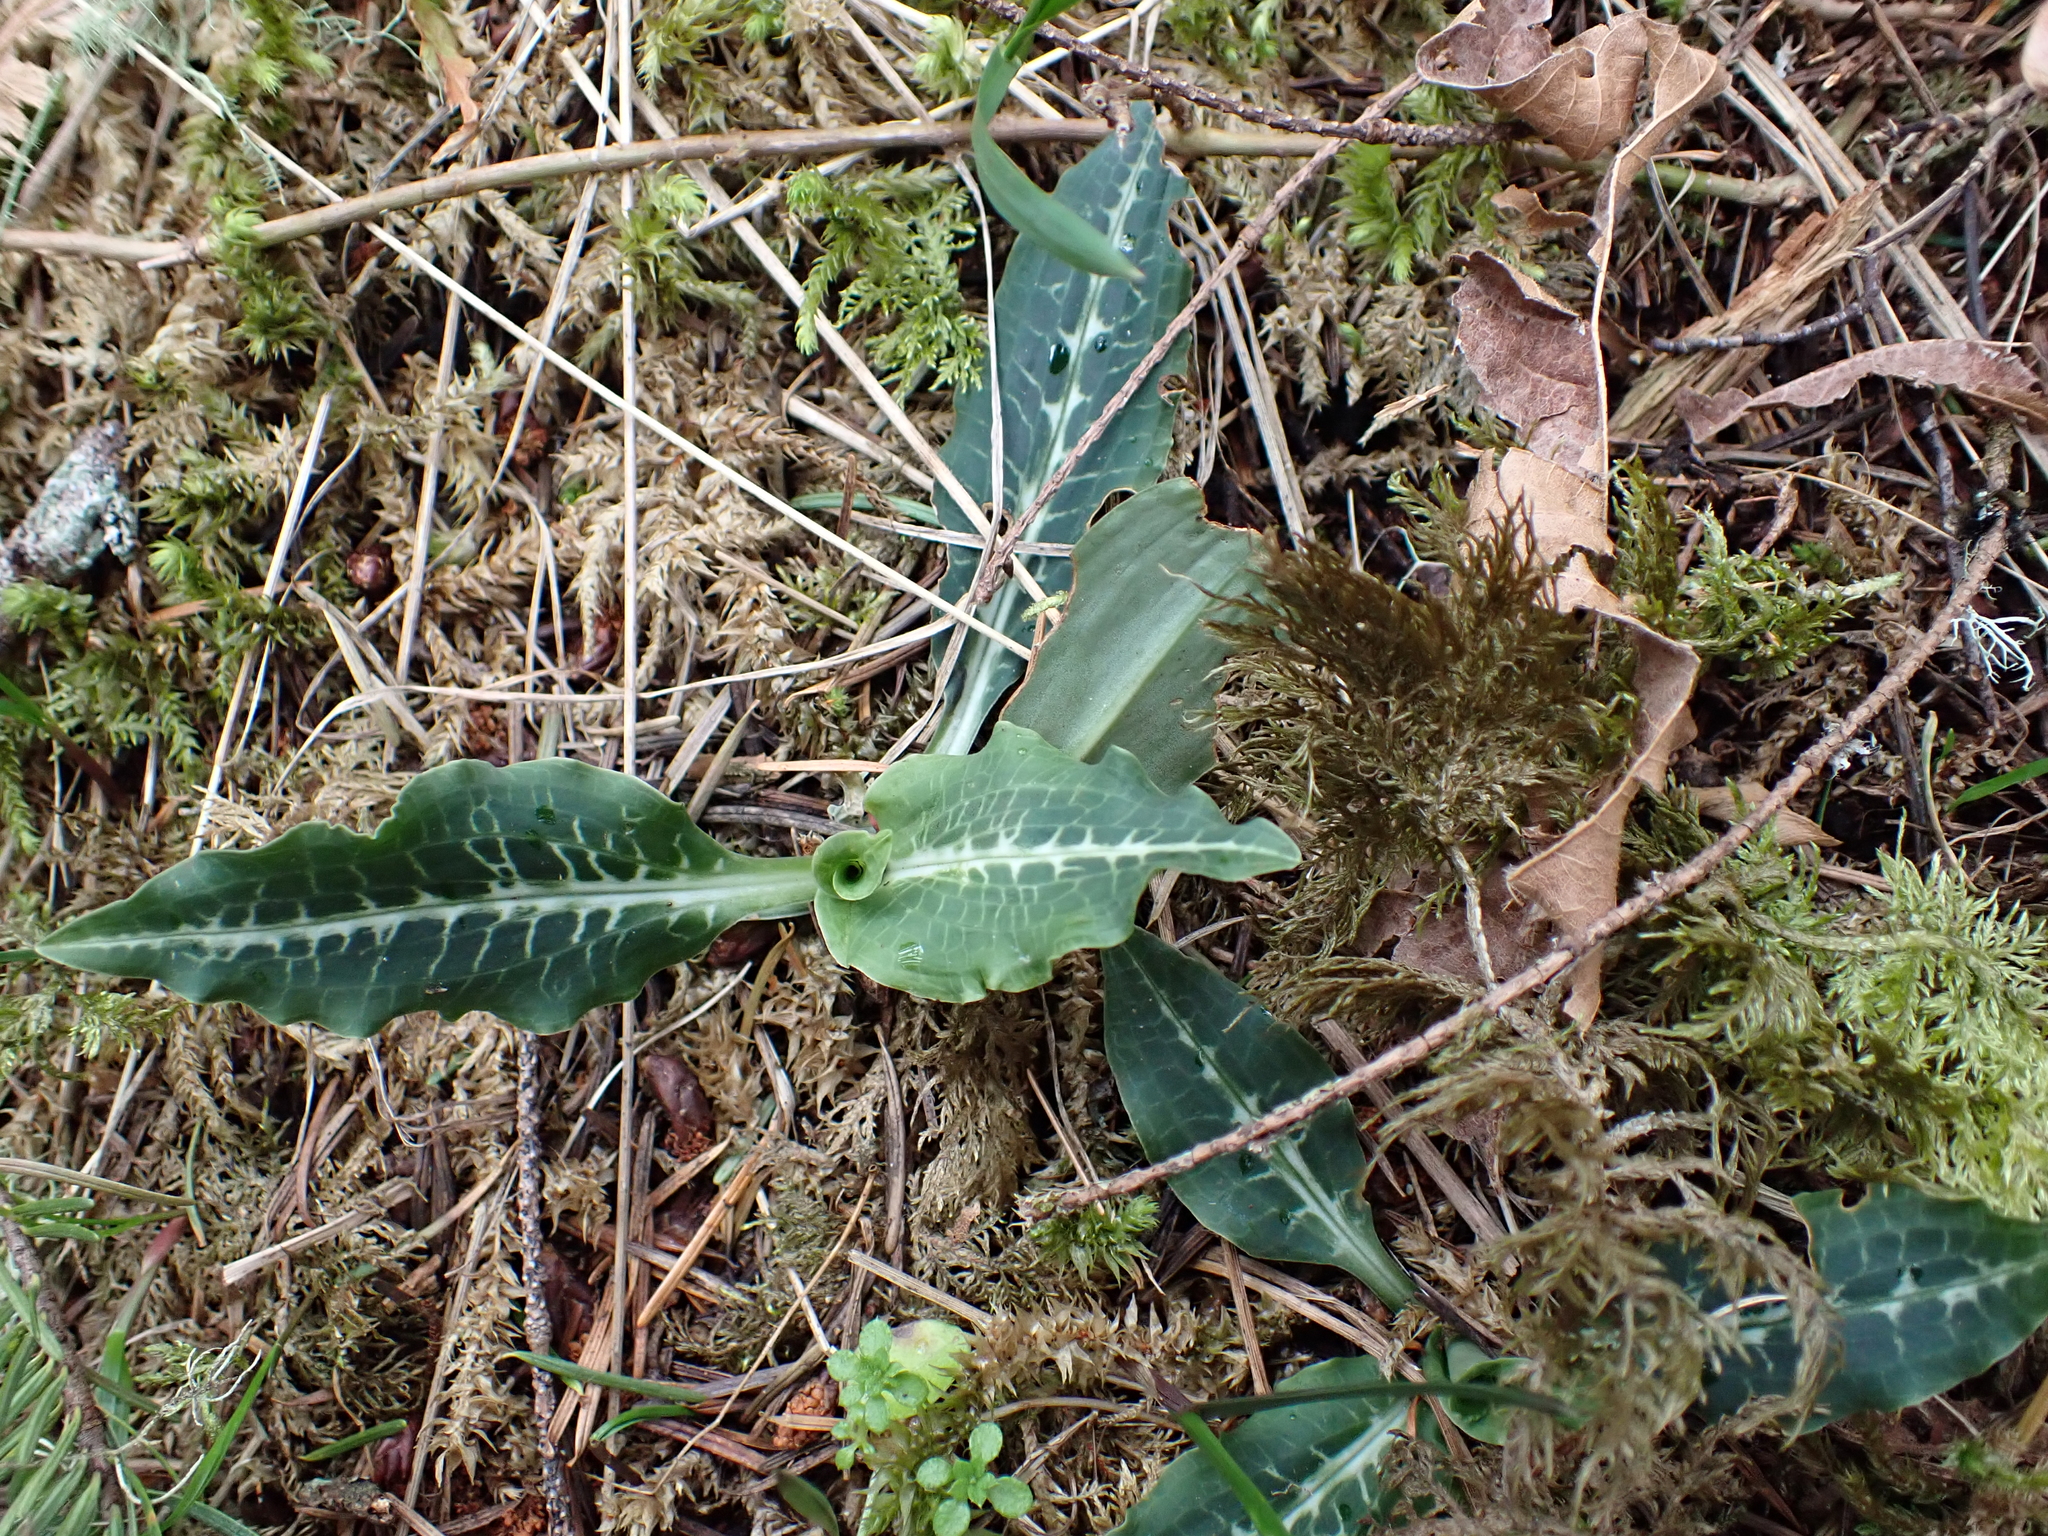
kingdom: Plantae
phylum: Tracheophyta
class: Liliopsida
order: Asparagales
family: Orchidaceae
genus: Goodyera
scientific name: Goodyera oblongifolia
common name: Giant rattlesnake-plantain
